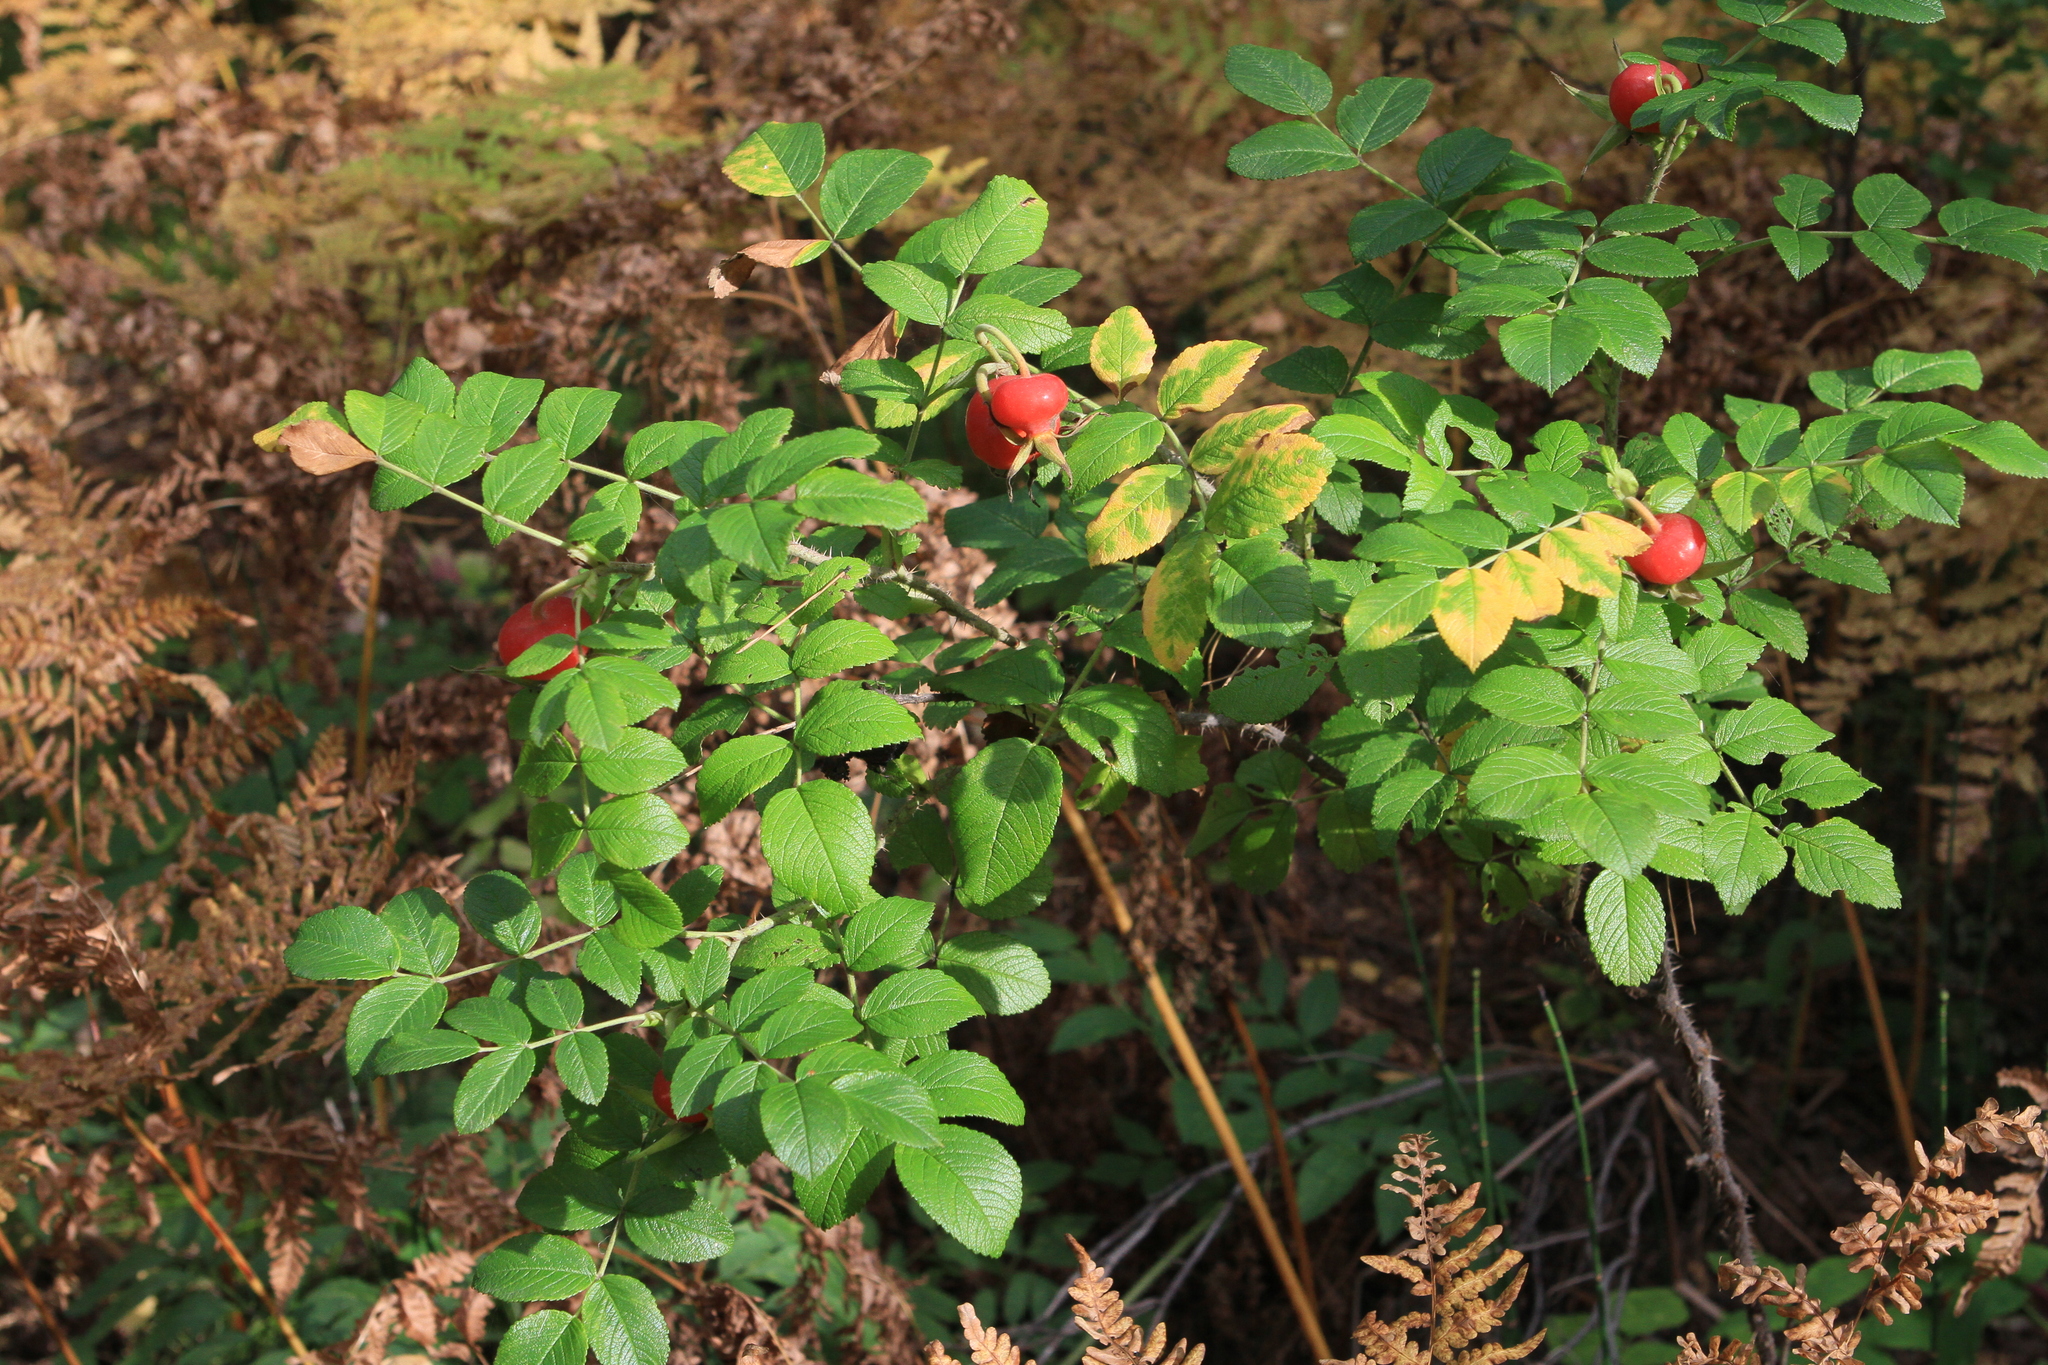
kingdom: Plantae
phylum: Tracheophyta
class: Magnoliopsida
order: Rosales
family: Rosaceae
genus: Rosa
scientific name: Rosa rugosa
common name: Japanese rose
